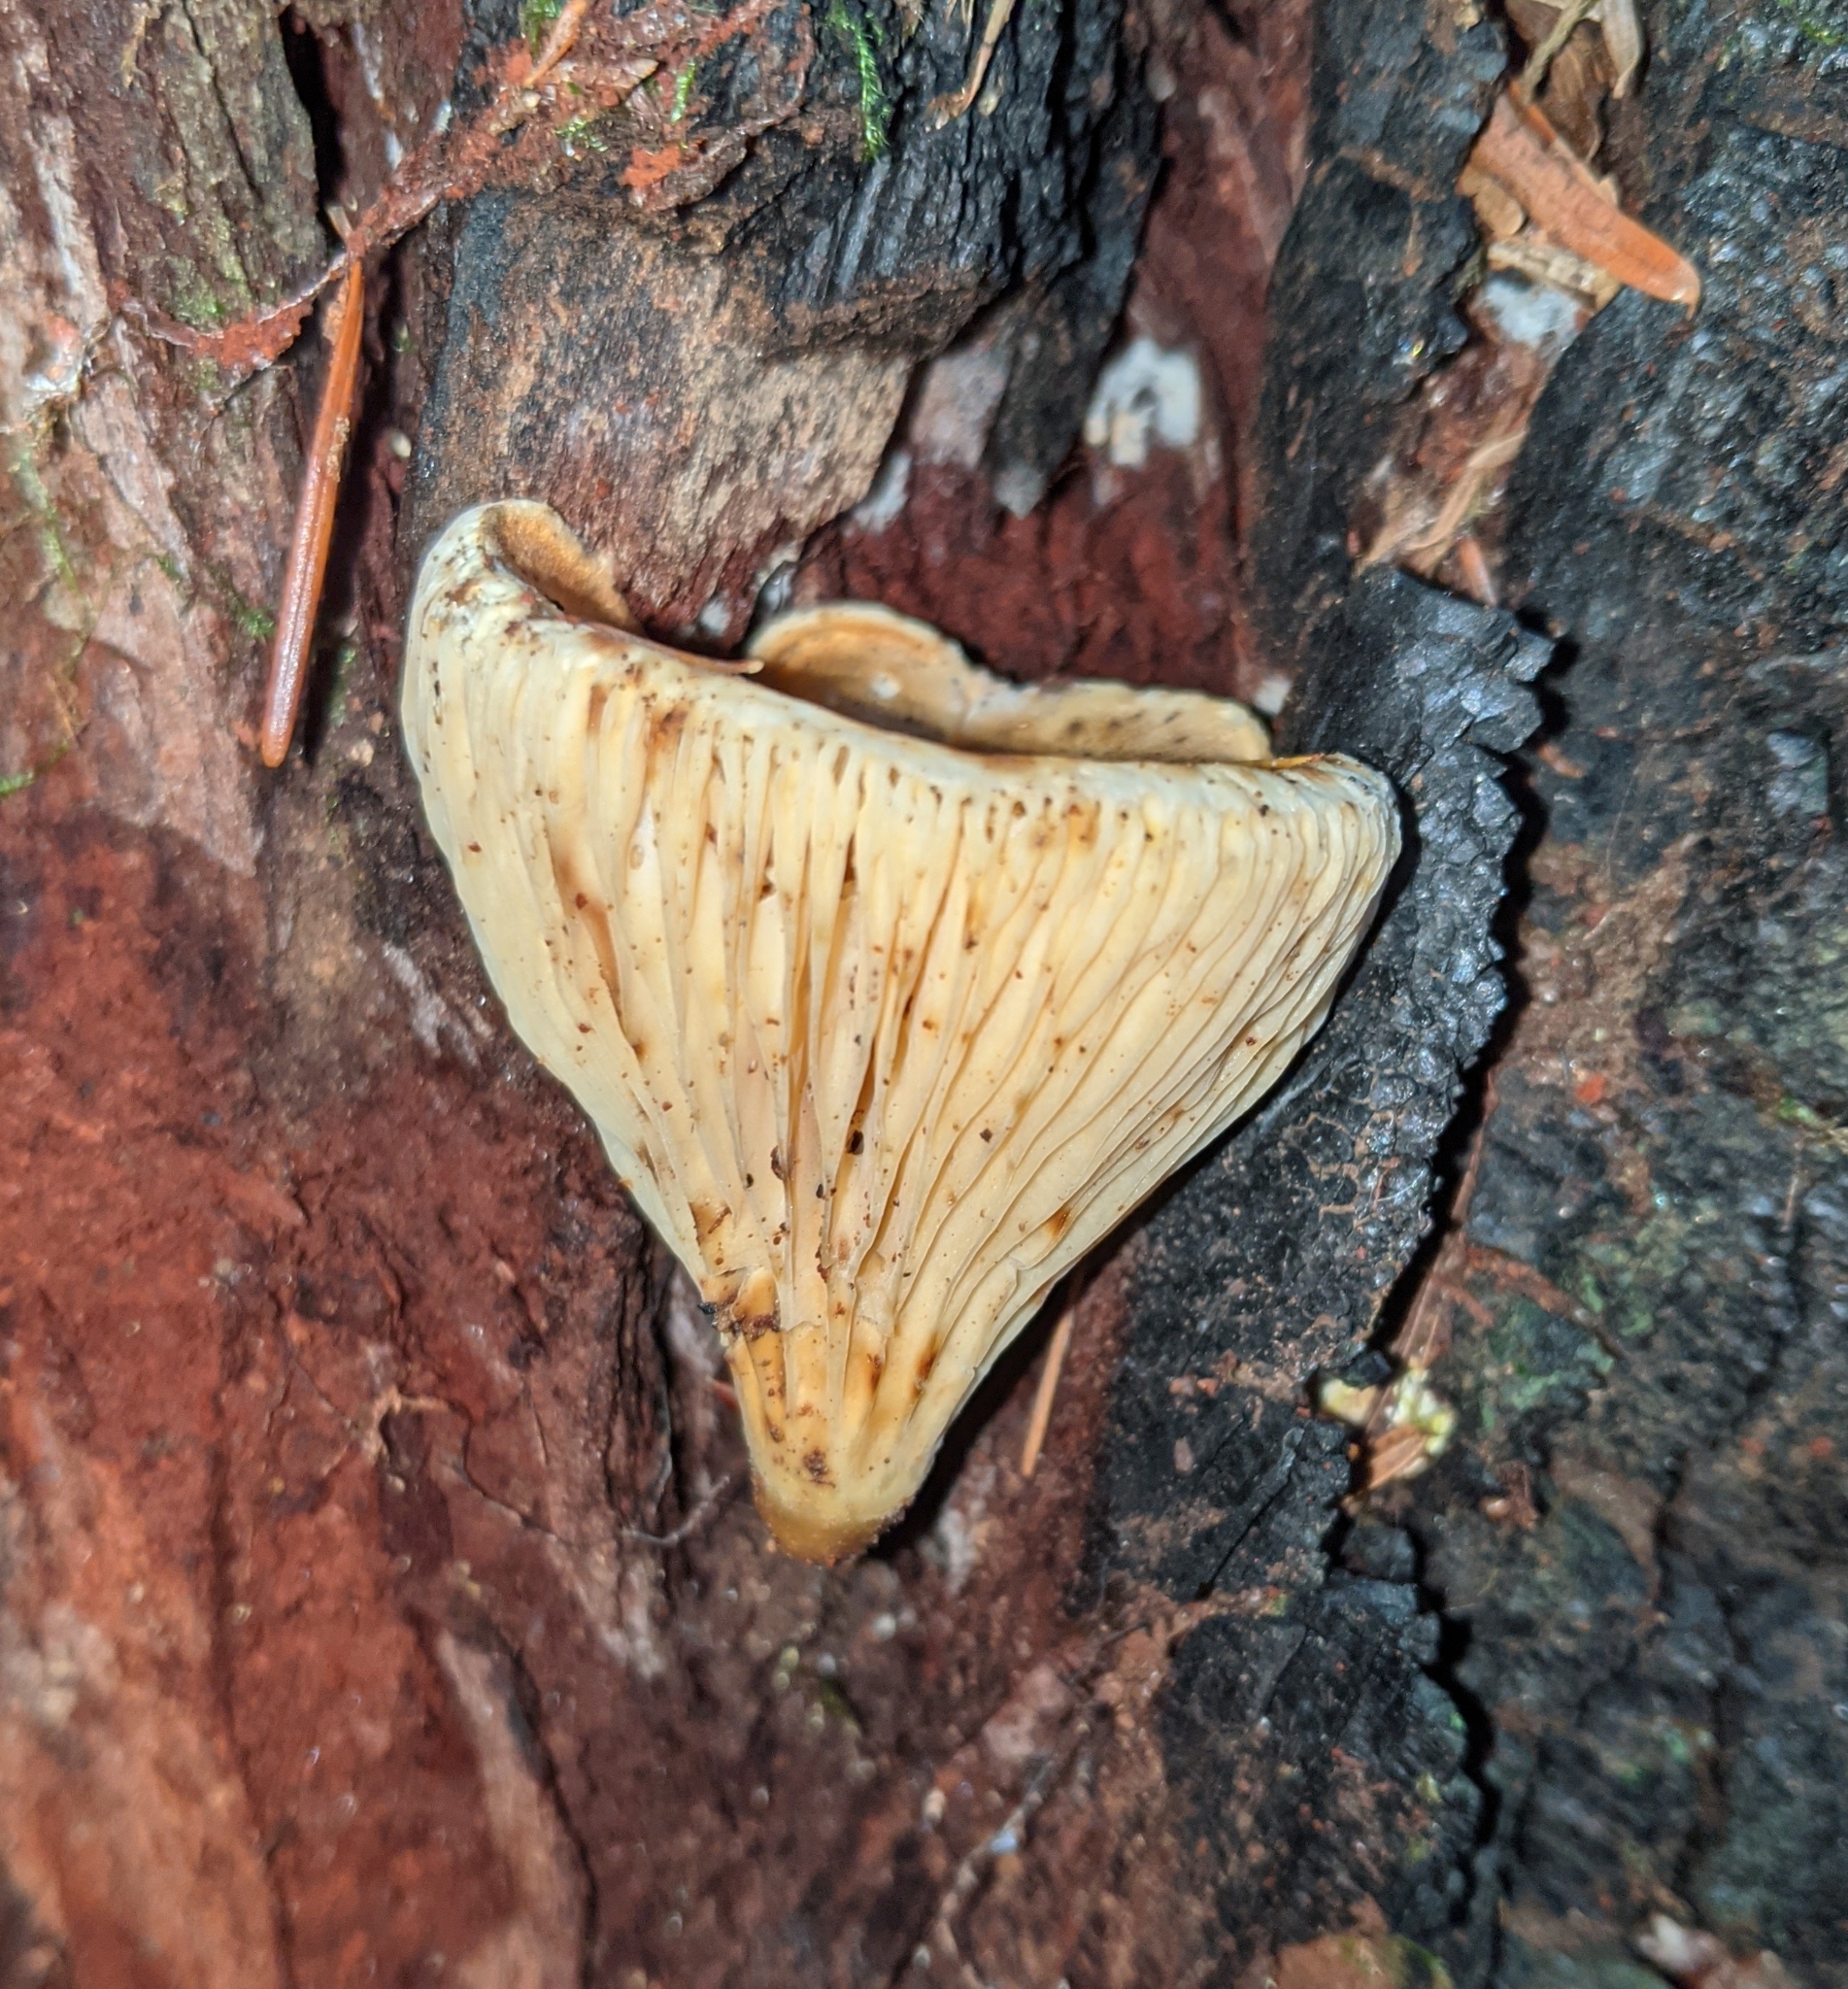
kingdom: Fungi
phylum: Basidiomycota
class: Agaricomycetes
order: Boletales
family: Hygrophoropsidaceae
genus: Hygrophoropsis
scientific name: Hygrophoropsis aurantiaca
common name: False chanterelle
